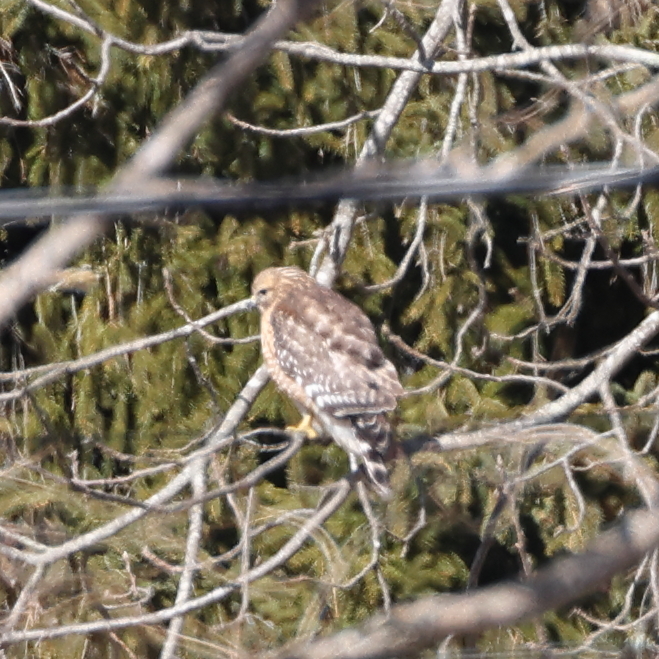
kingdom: Animalia
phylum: Chordata
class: Aves
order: Accipitriformes
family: Accipitridae
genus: Buteo
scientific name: Buteo lineatus
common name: Red-shouldered hawk
